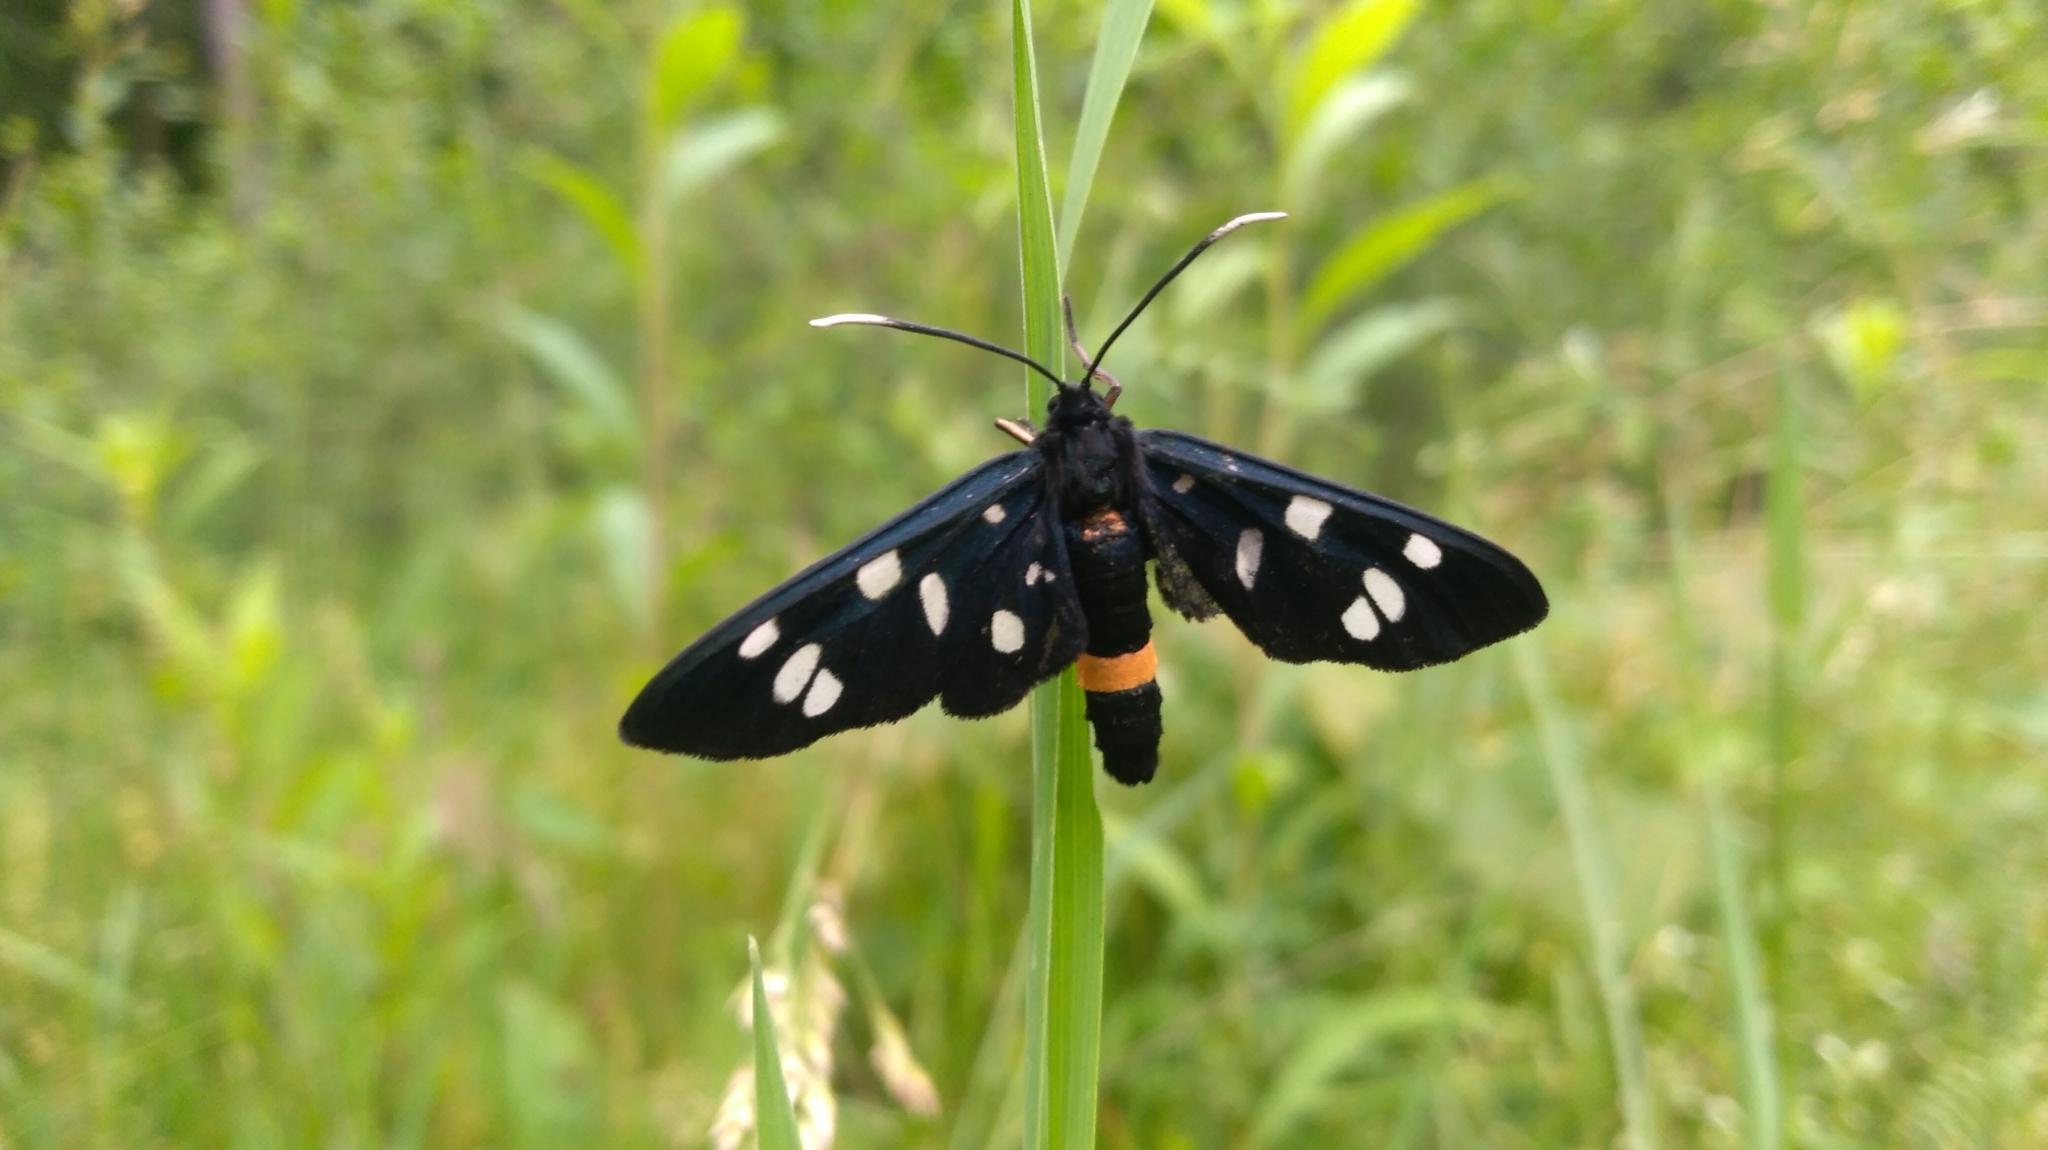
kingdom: Animalia
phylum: Arthropoda
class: Insecta
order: Lepidoptera
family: Erebidae
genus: Amata
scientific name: Amata phegea
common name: Nine-spotted
